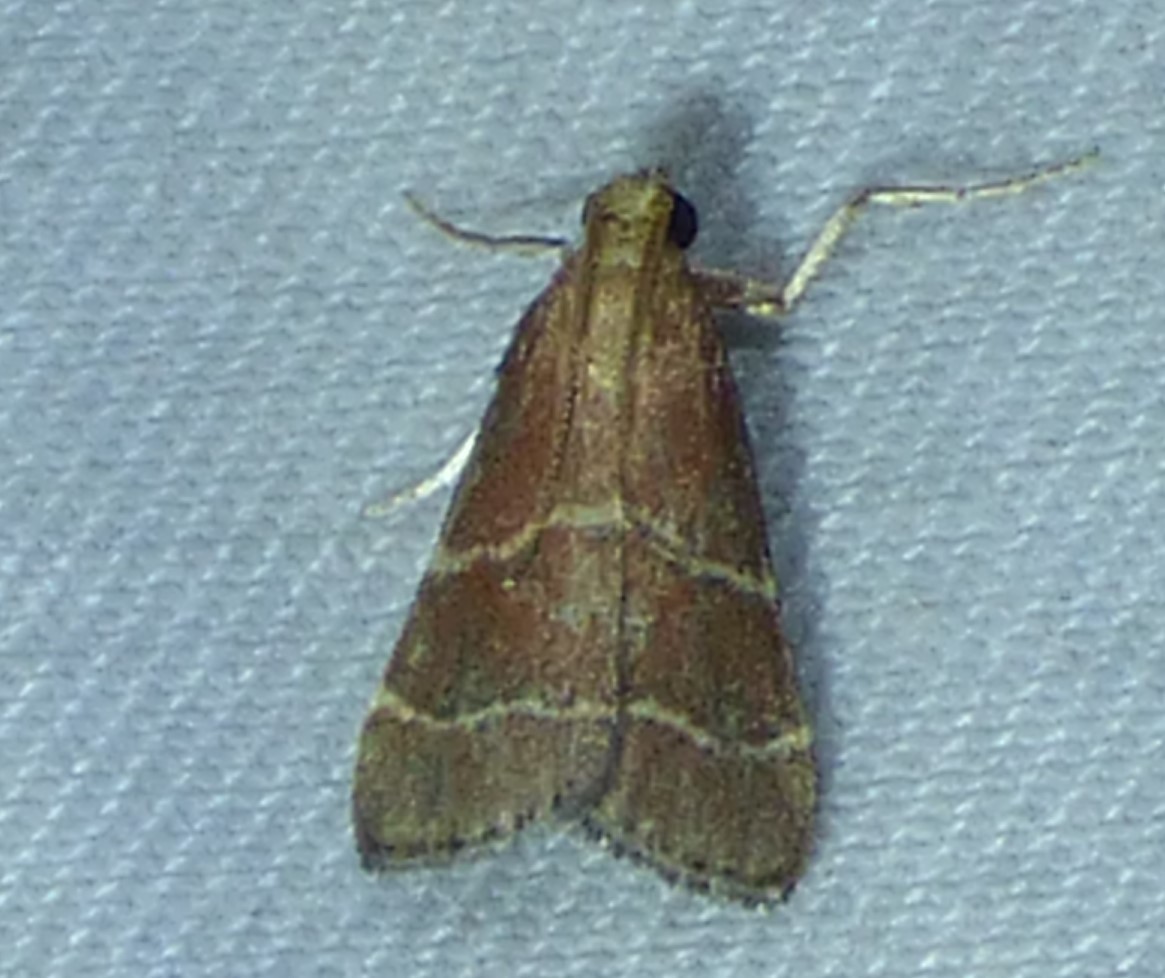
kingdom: Animalia
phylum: Arthropoda
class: Insecta
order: Lepidoptera
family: Pyralidae
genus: Arta
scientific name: Arta statalis
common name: Posturing arta moth
